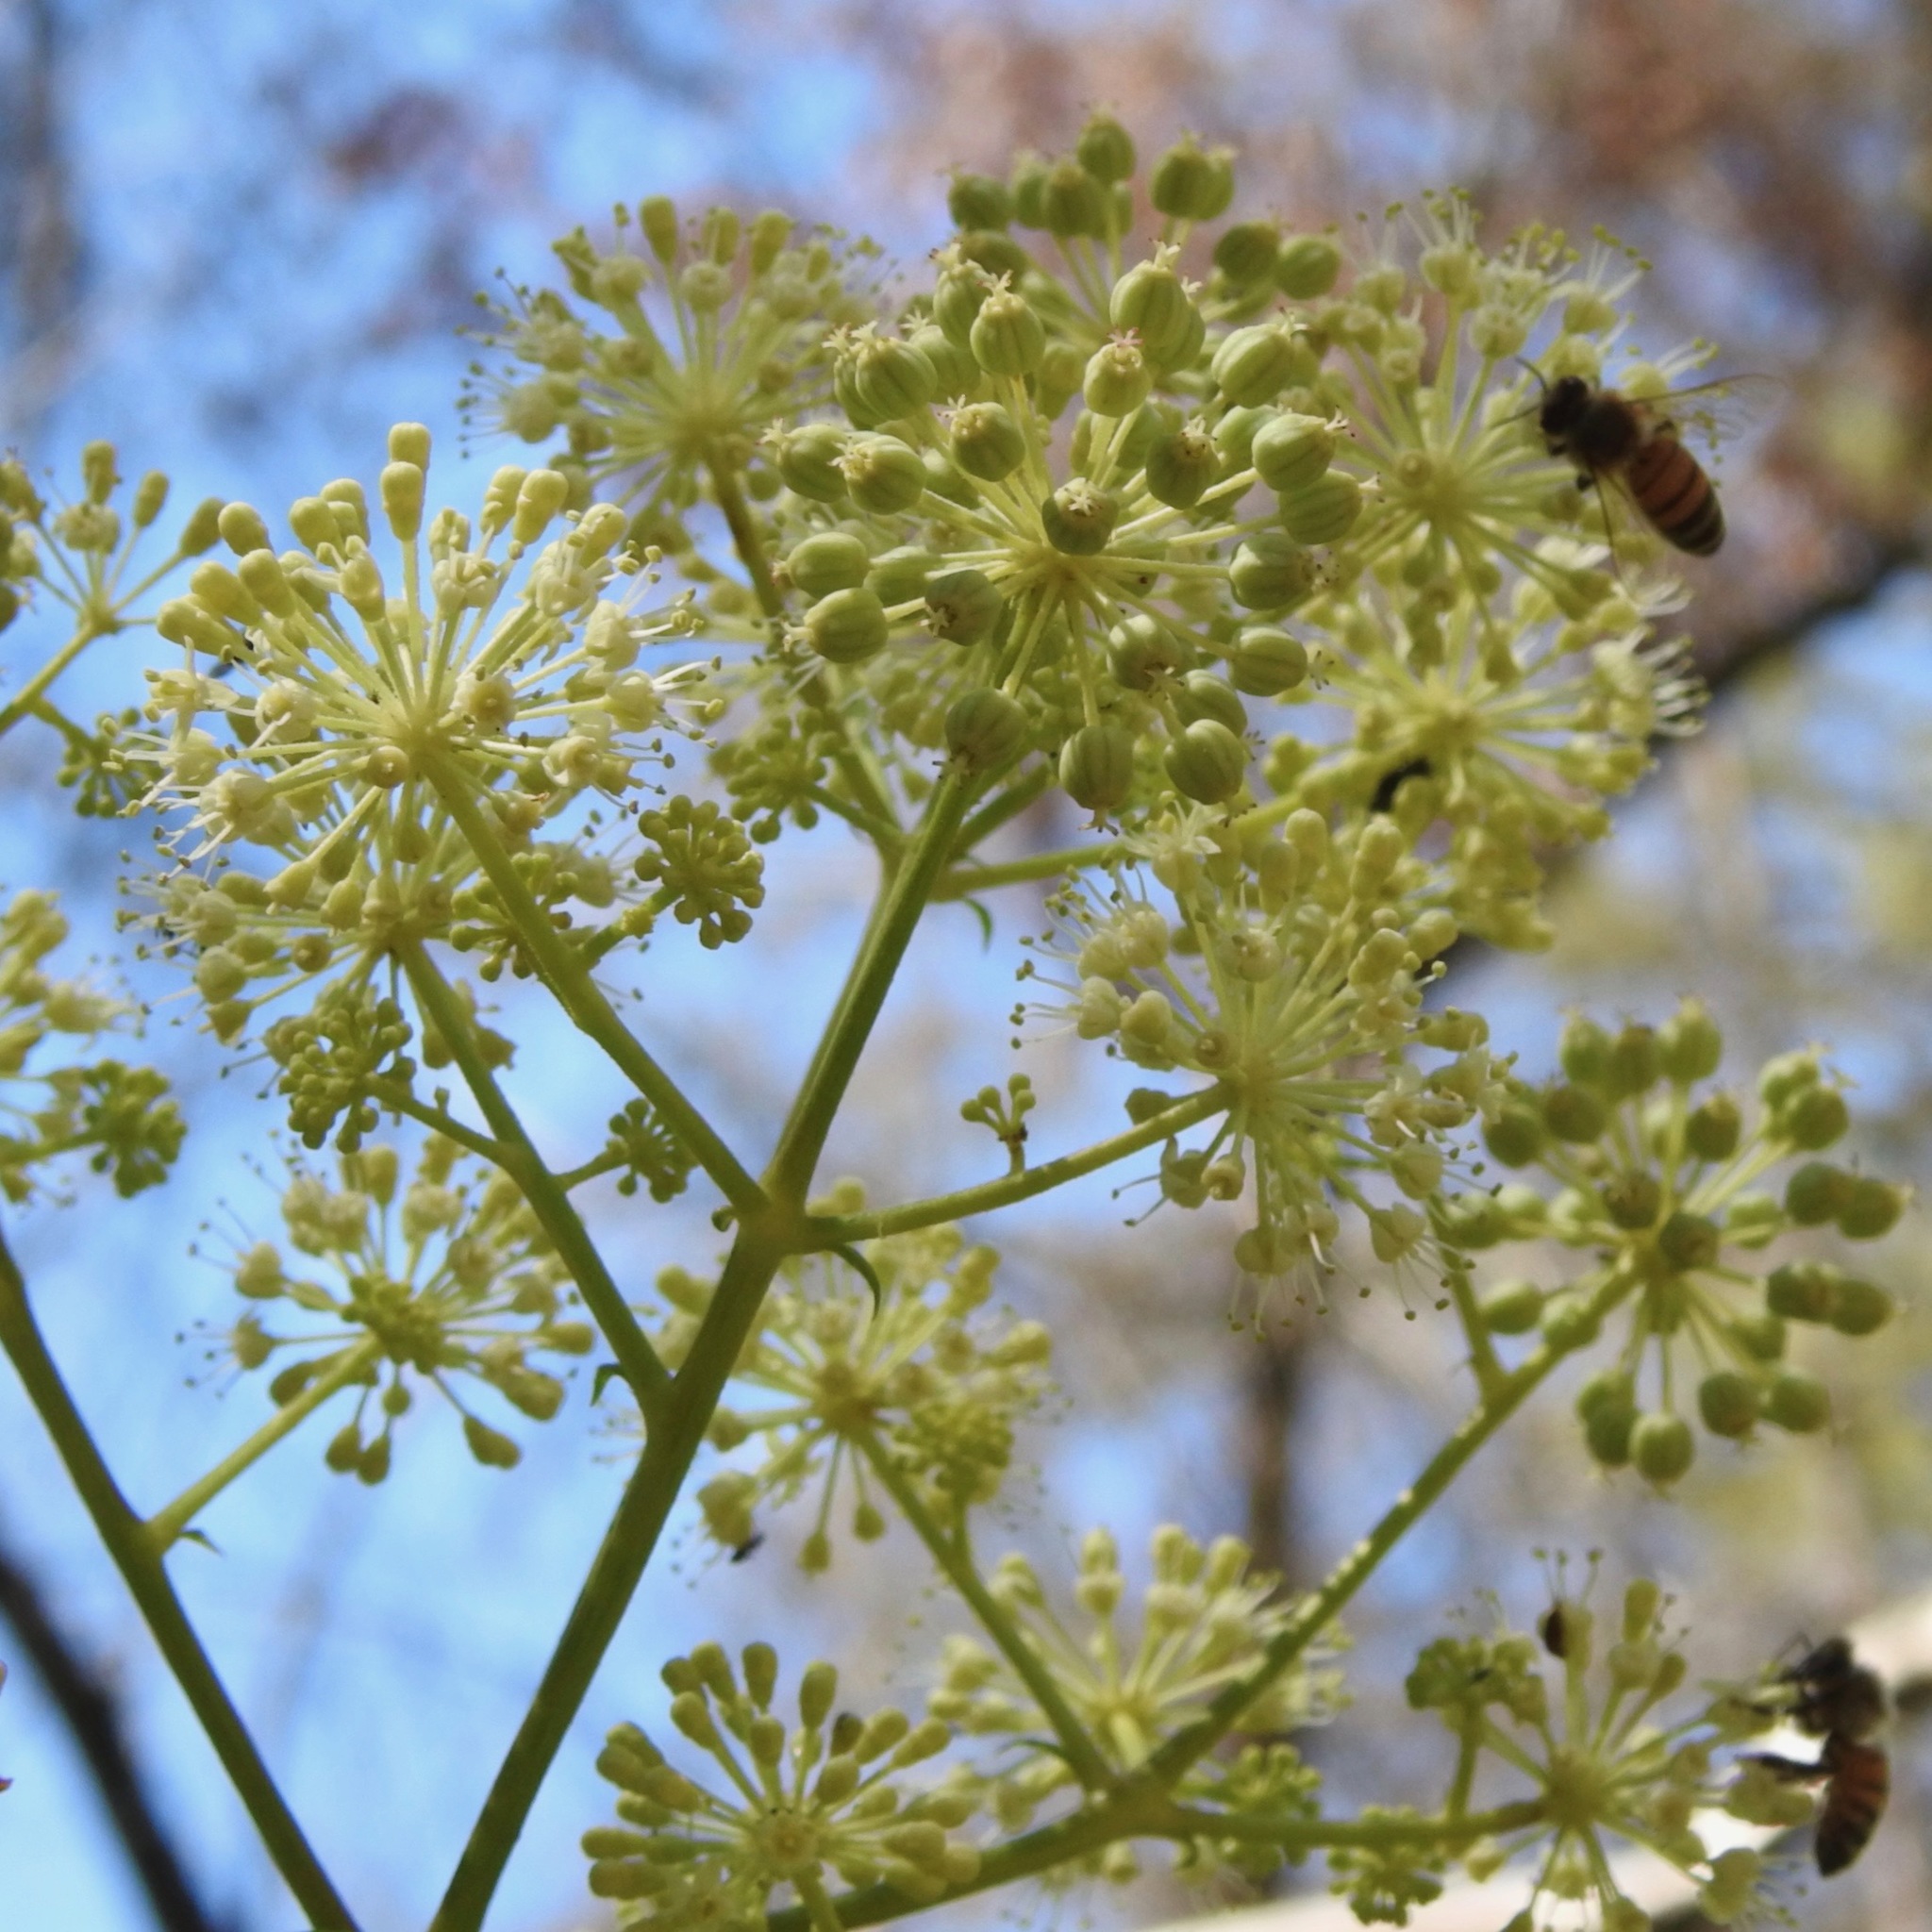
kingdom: Animalia
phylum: Arthropoda
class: Insecta
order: Hymenoptera
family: Apidae
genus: Apis
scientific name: Apis mellifera
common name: Honey bee
